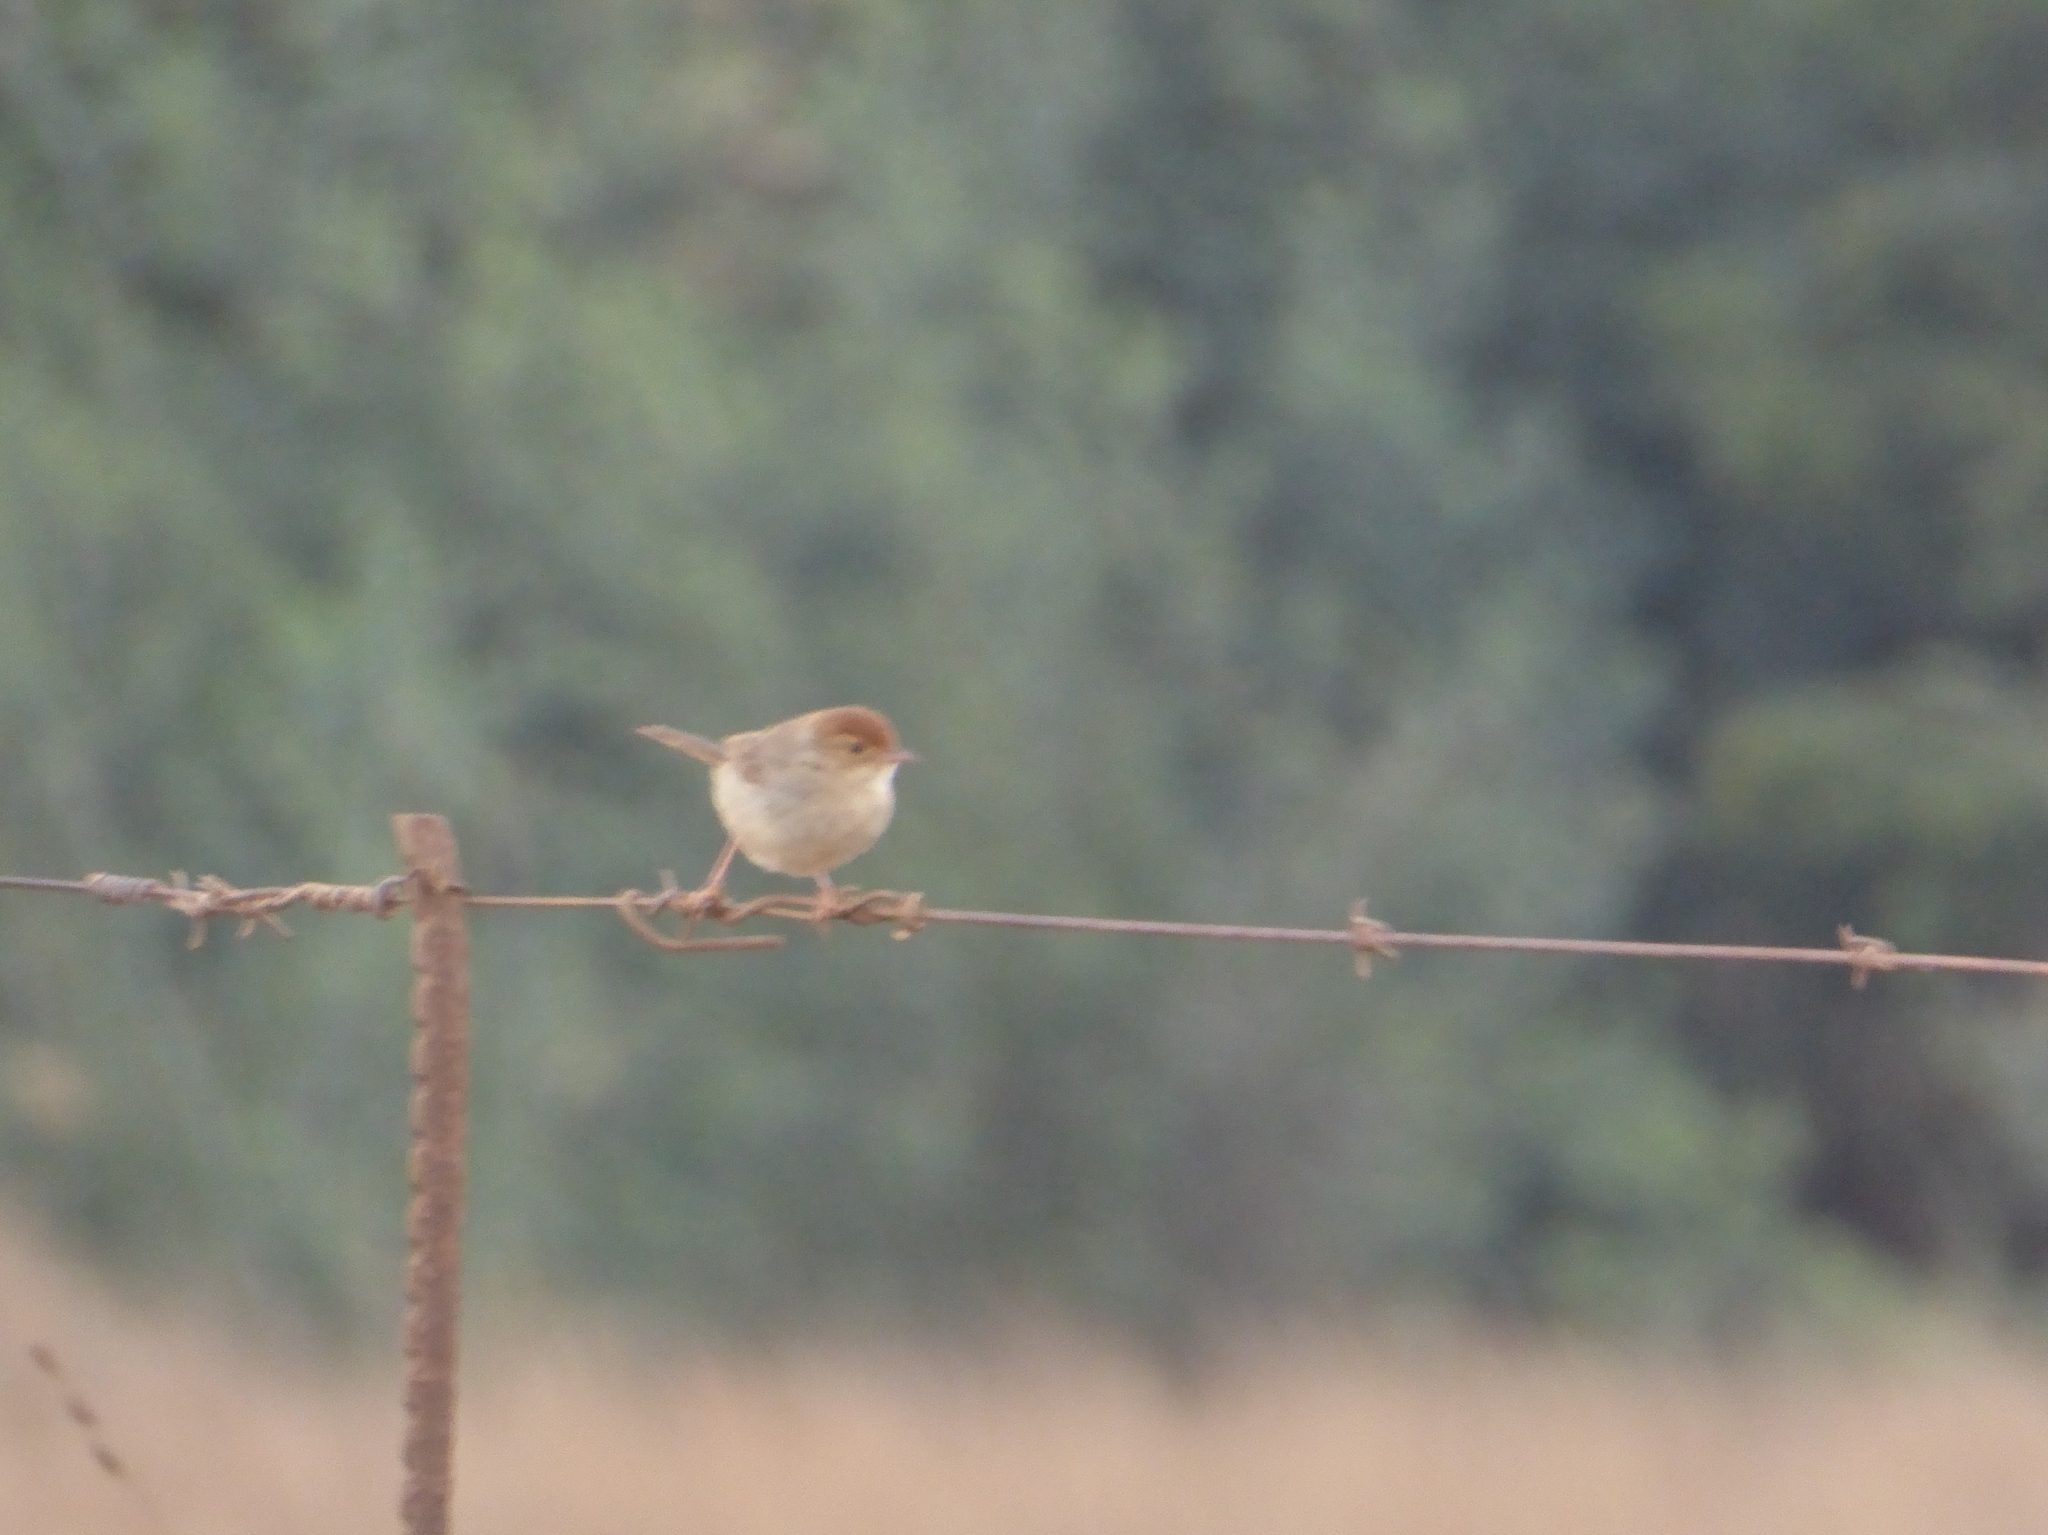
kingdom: Animalia
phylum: Chordata
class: Aves
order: Passeriformes
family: Cisticolidae
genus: Cisticola
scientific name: Cisticola fulvicapilla
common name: Neddicky
